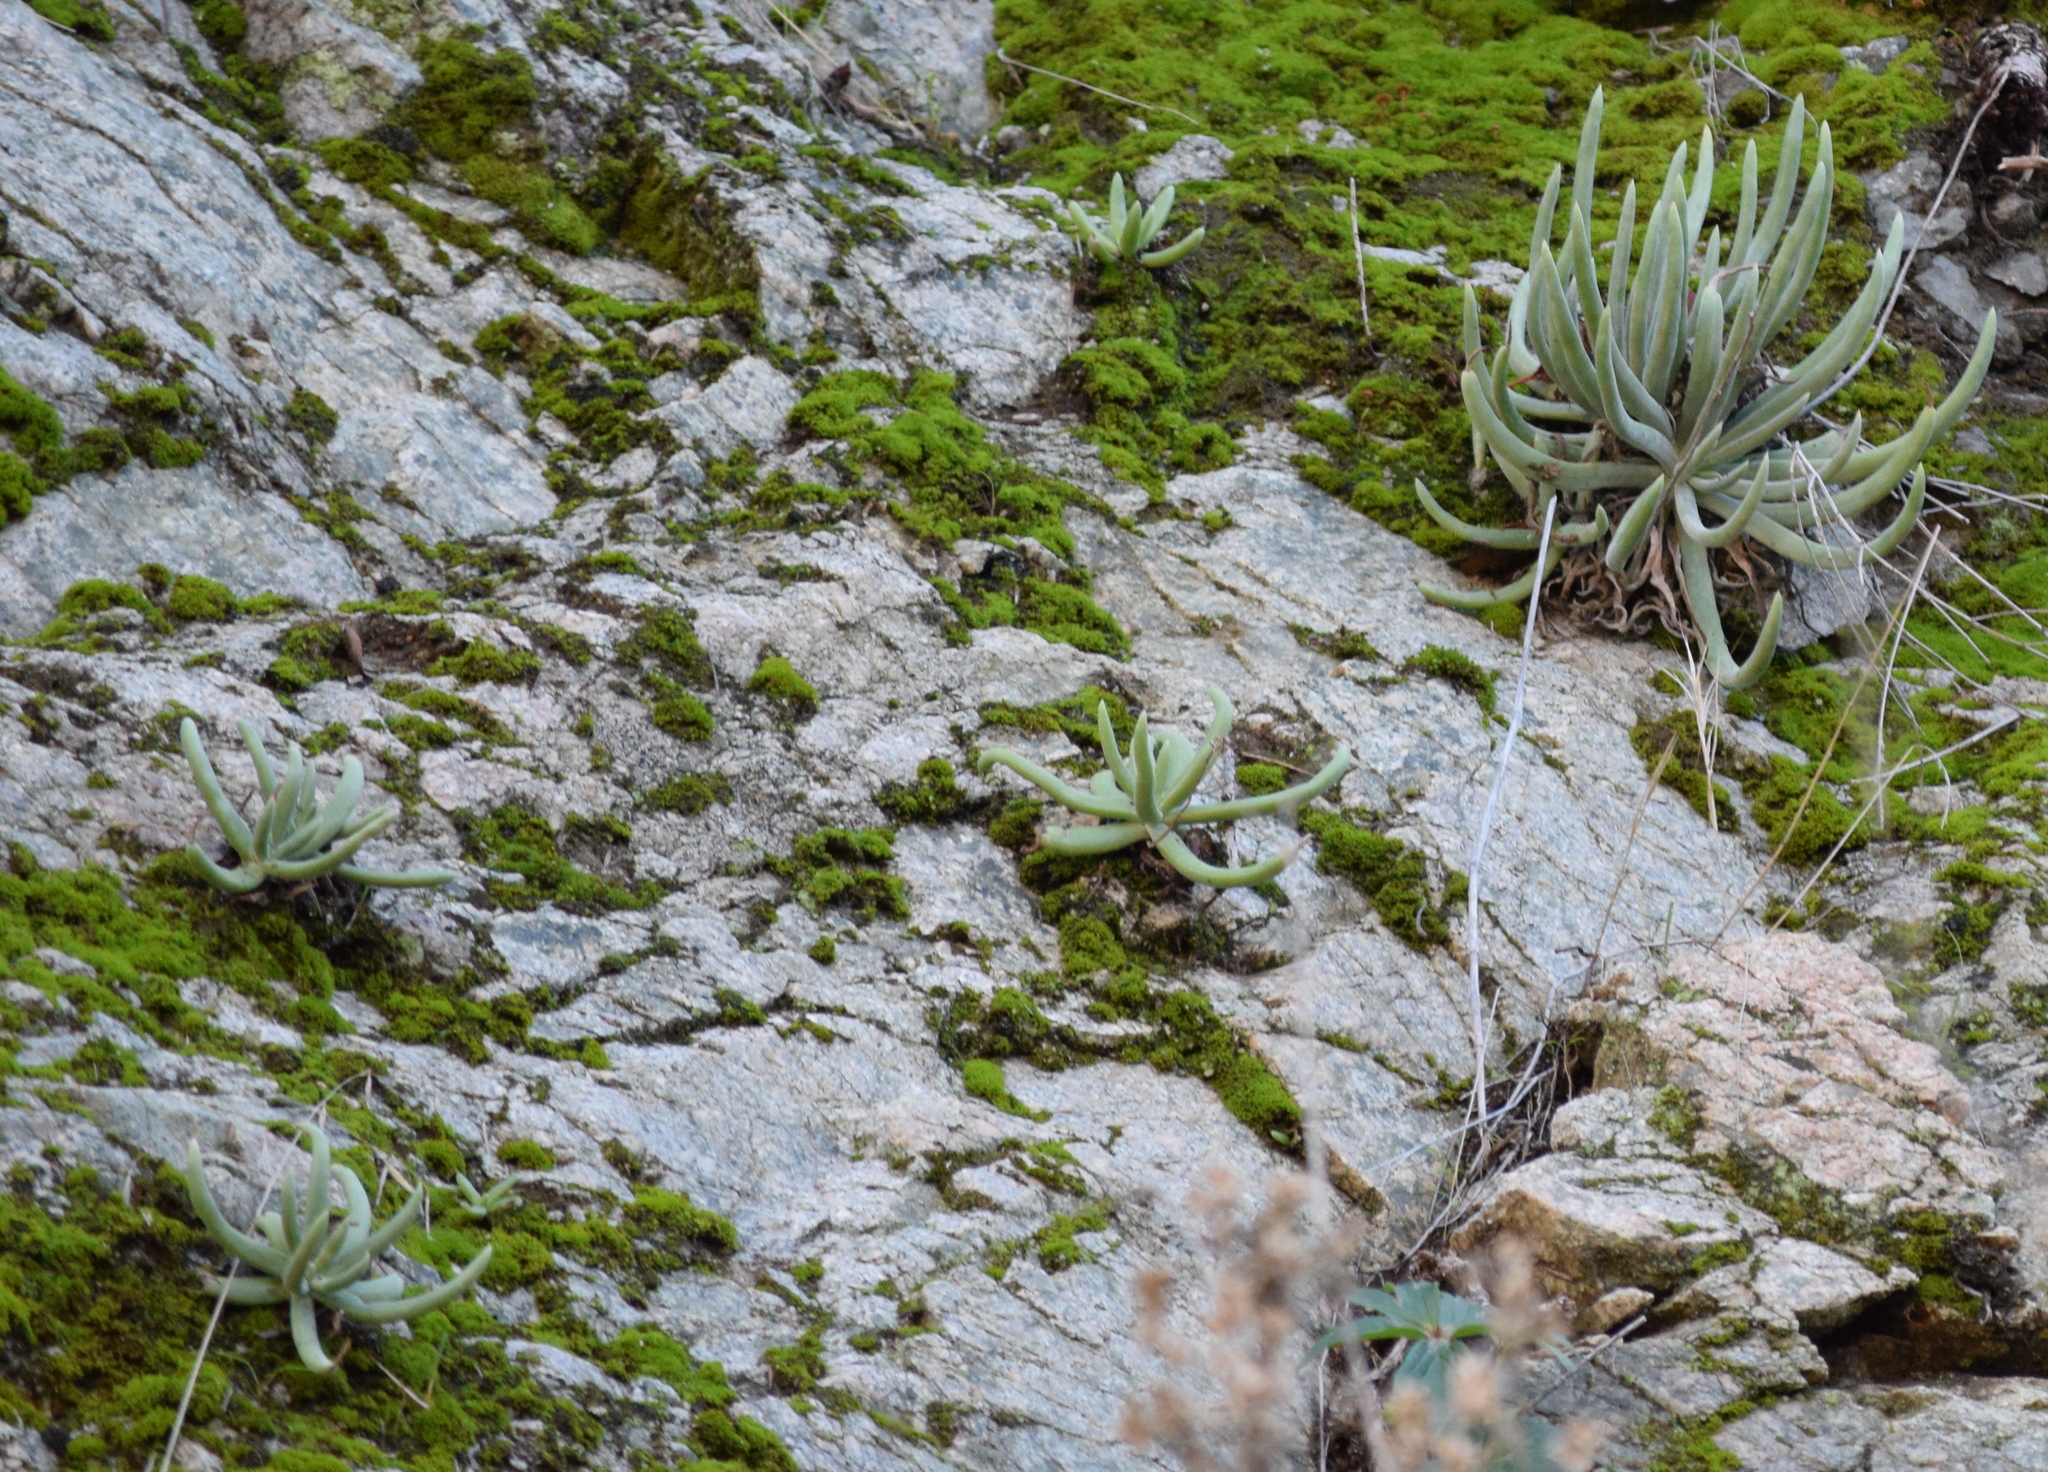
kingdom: Plantae
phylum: Tracheophyta
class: Magnoliopsida
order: Saxifragales
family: Crassulaceae
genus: Dudleya
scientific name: Dudleya densiflora
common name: San gabriel mountains dudleya
